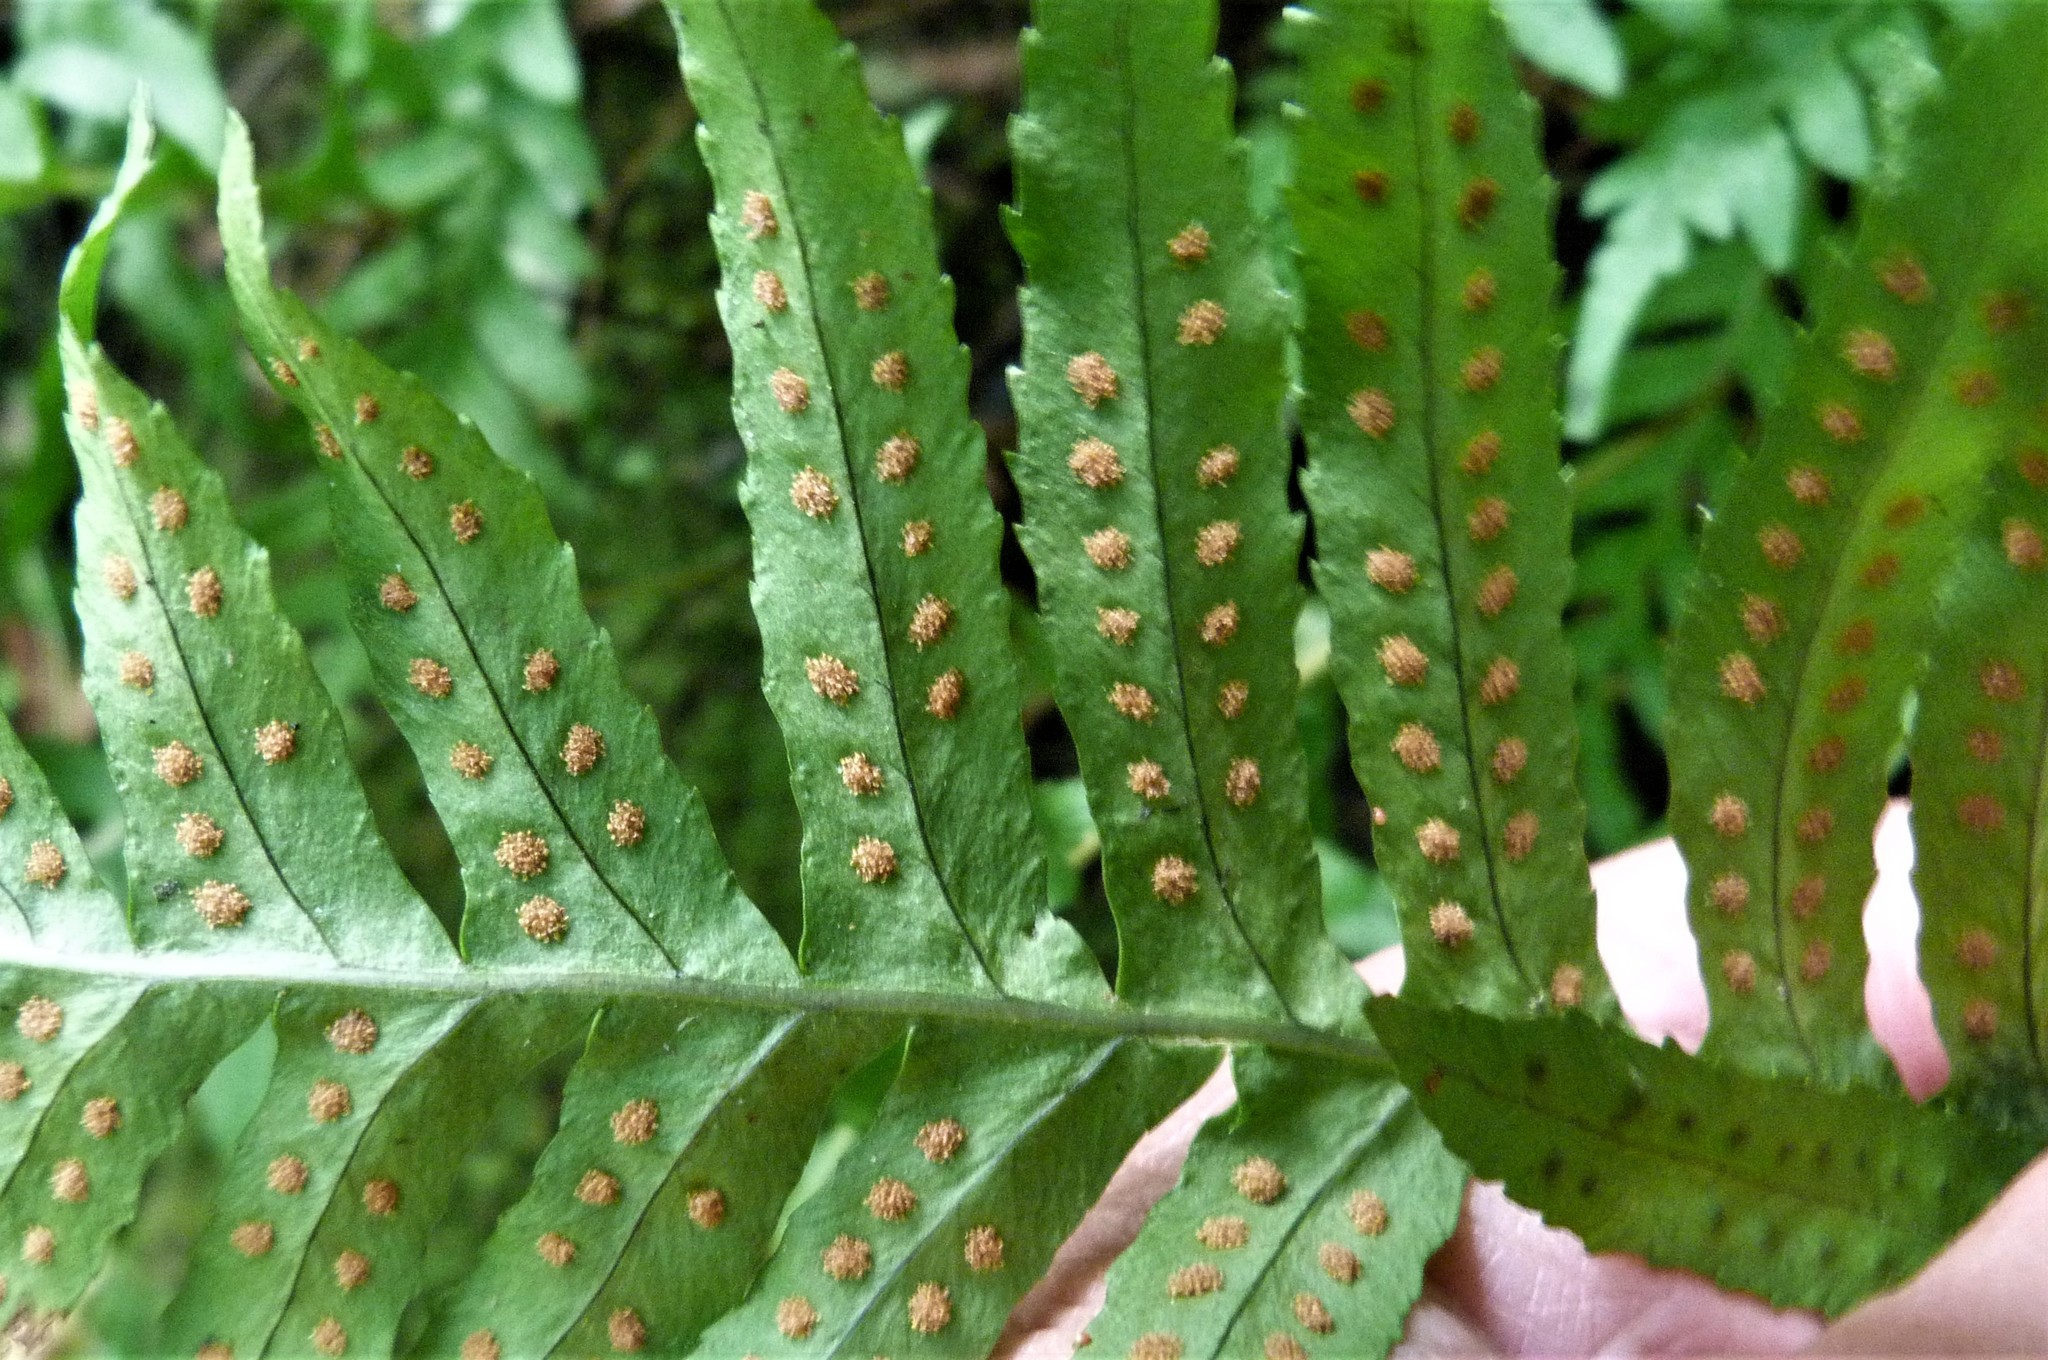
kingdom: Plantae
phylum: Tracheophyta
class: Polypodiopsida
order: Polypodiales
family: Polypodiaceae
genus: Polypodium
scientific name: Polypodium vulgare
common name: Common polypody
